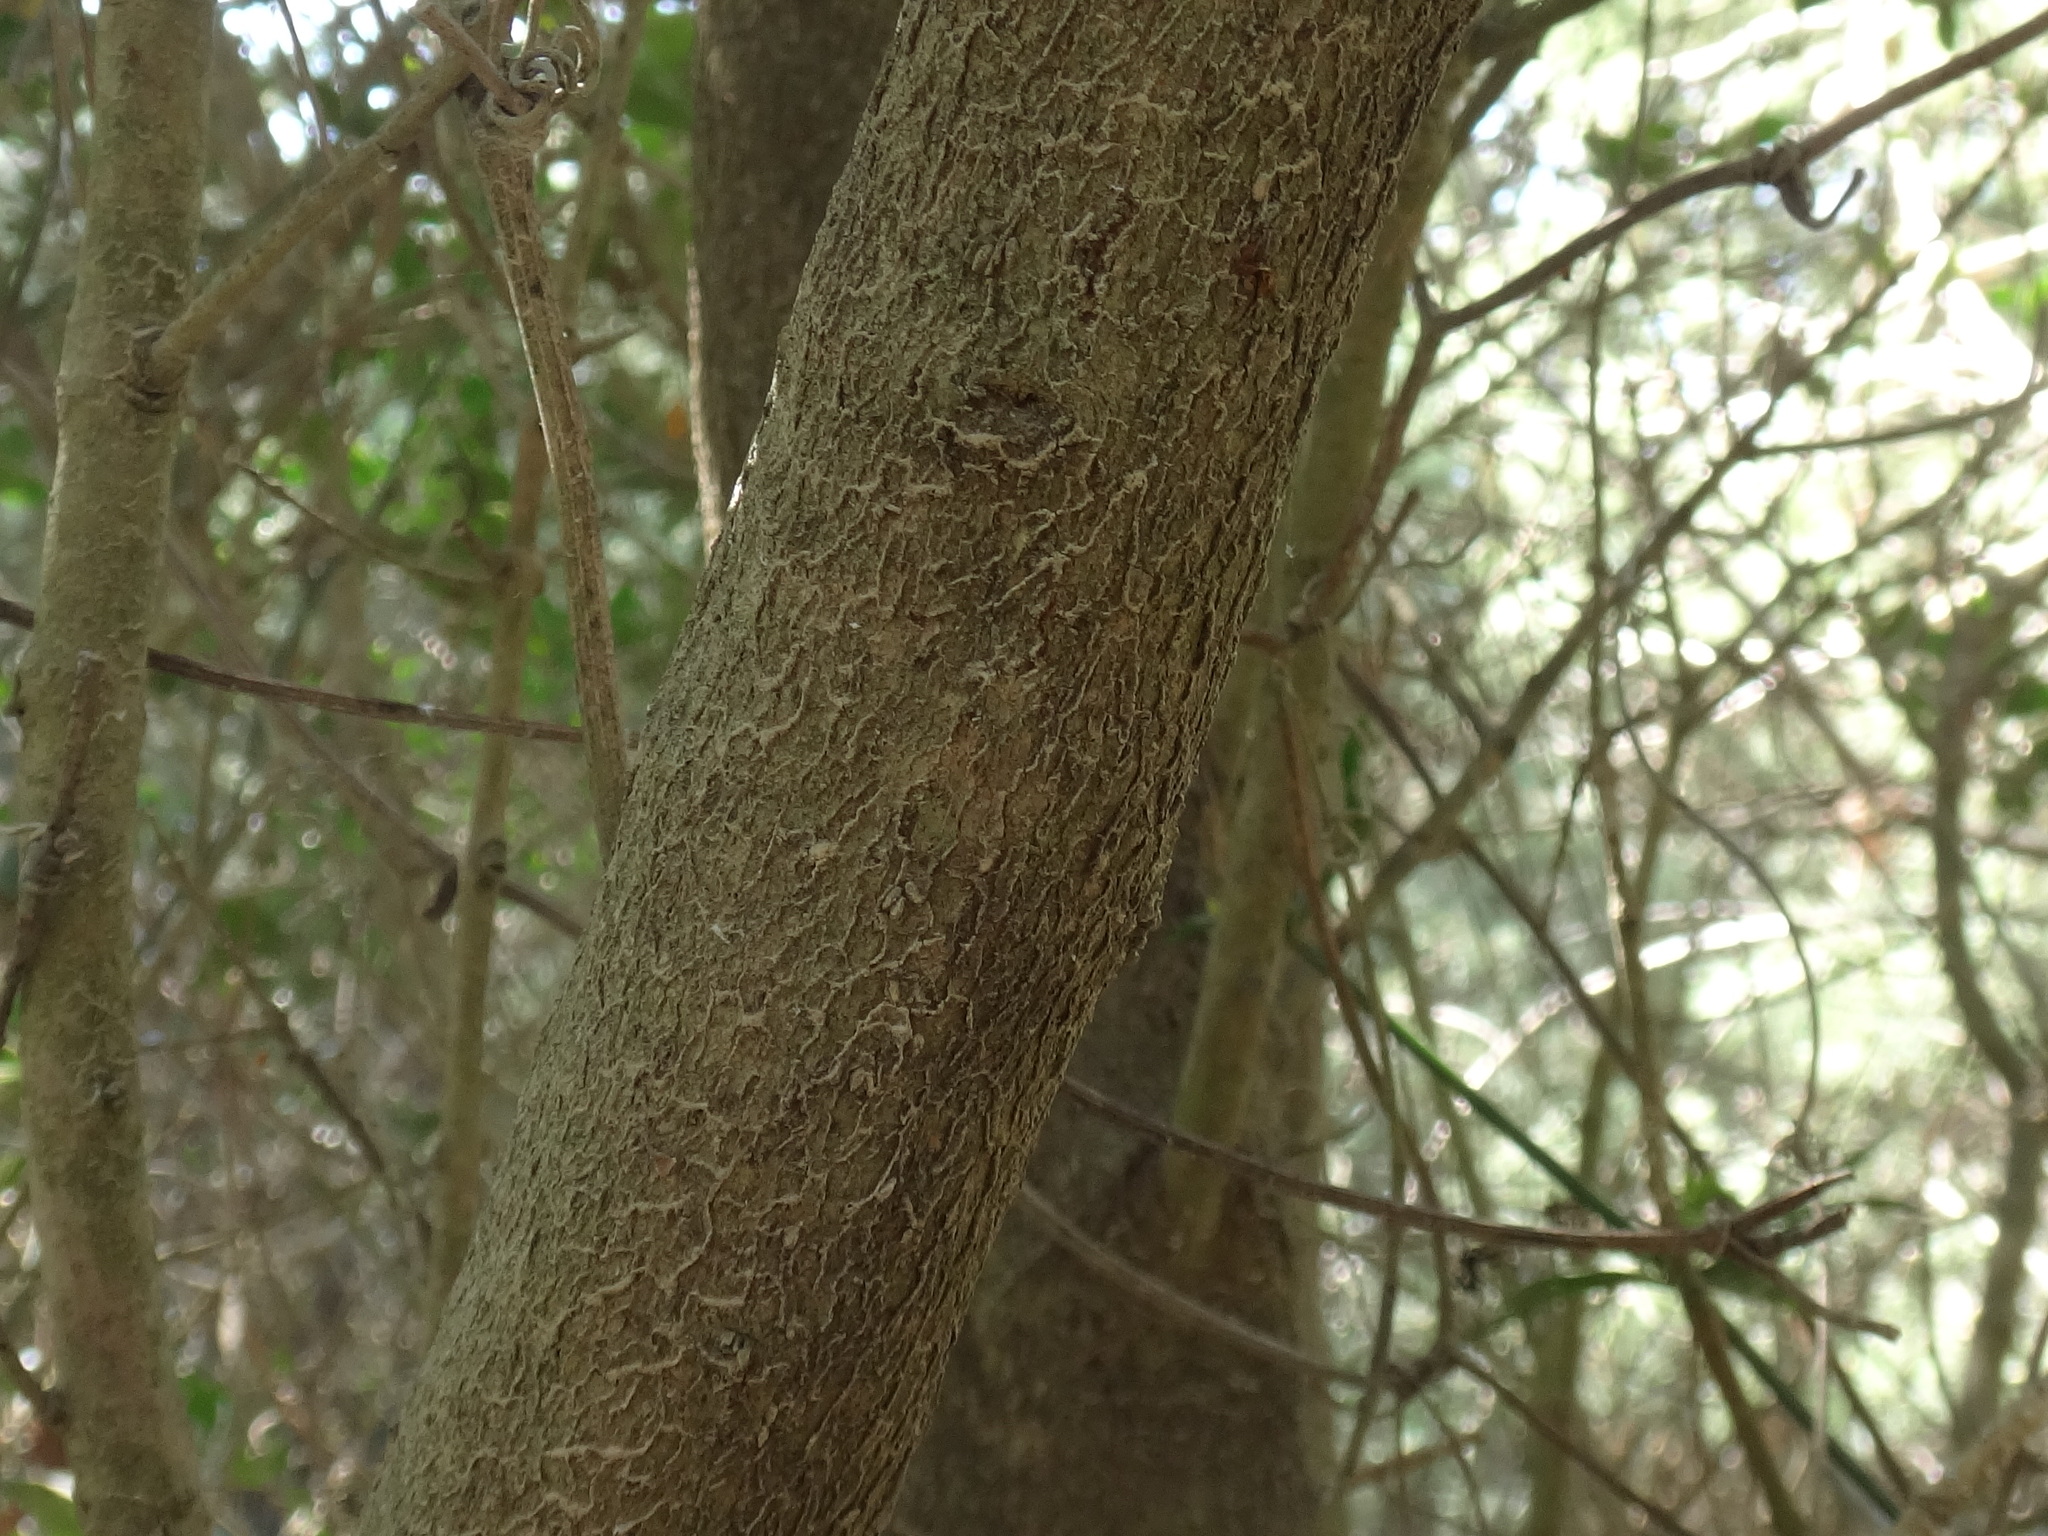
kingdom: Plantae
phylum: Tracheophyta
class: Magnoliopsida
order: Lamiales
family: Oleaceae
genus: Phillyrea
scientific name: Phillyrea latifolia
